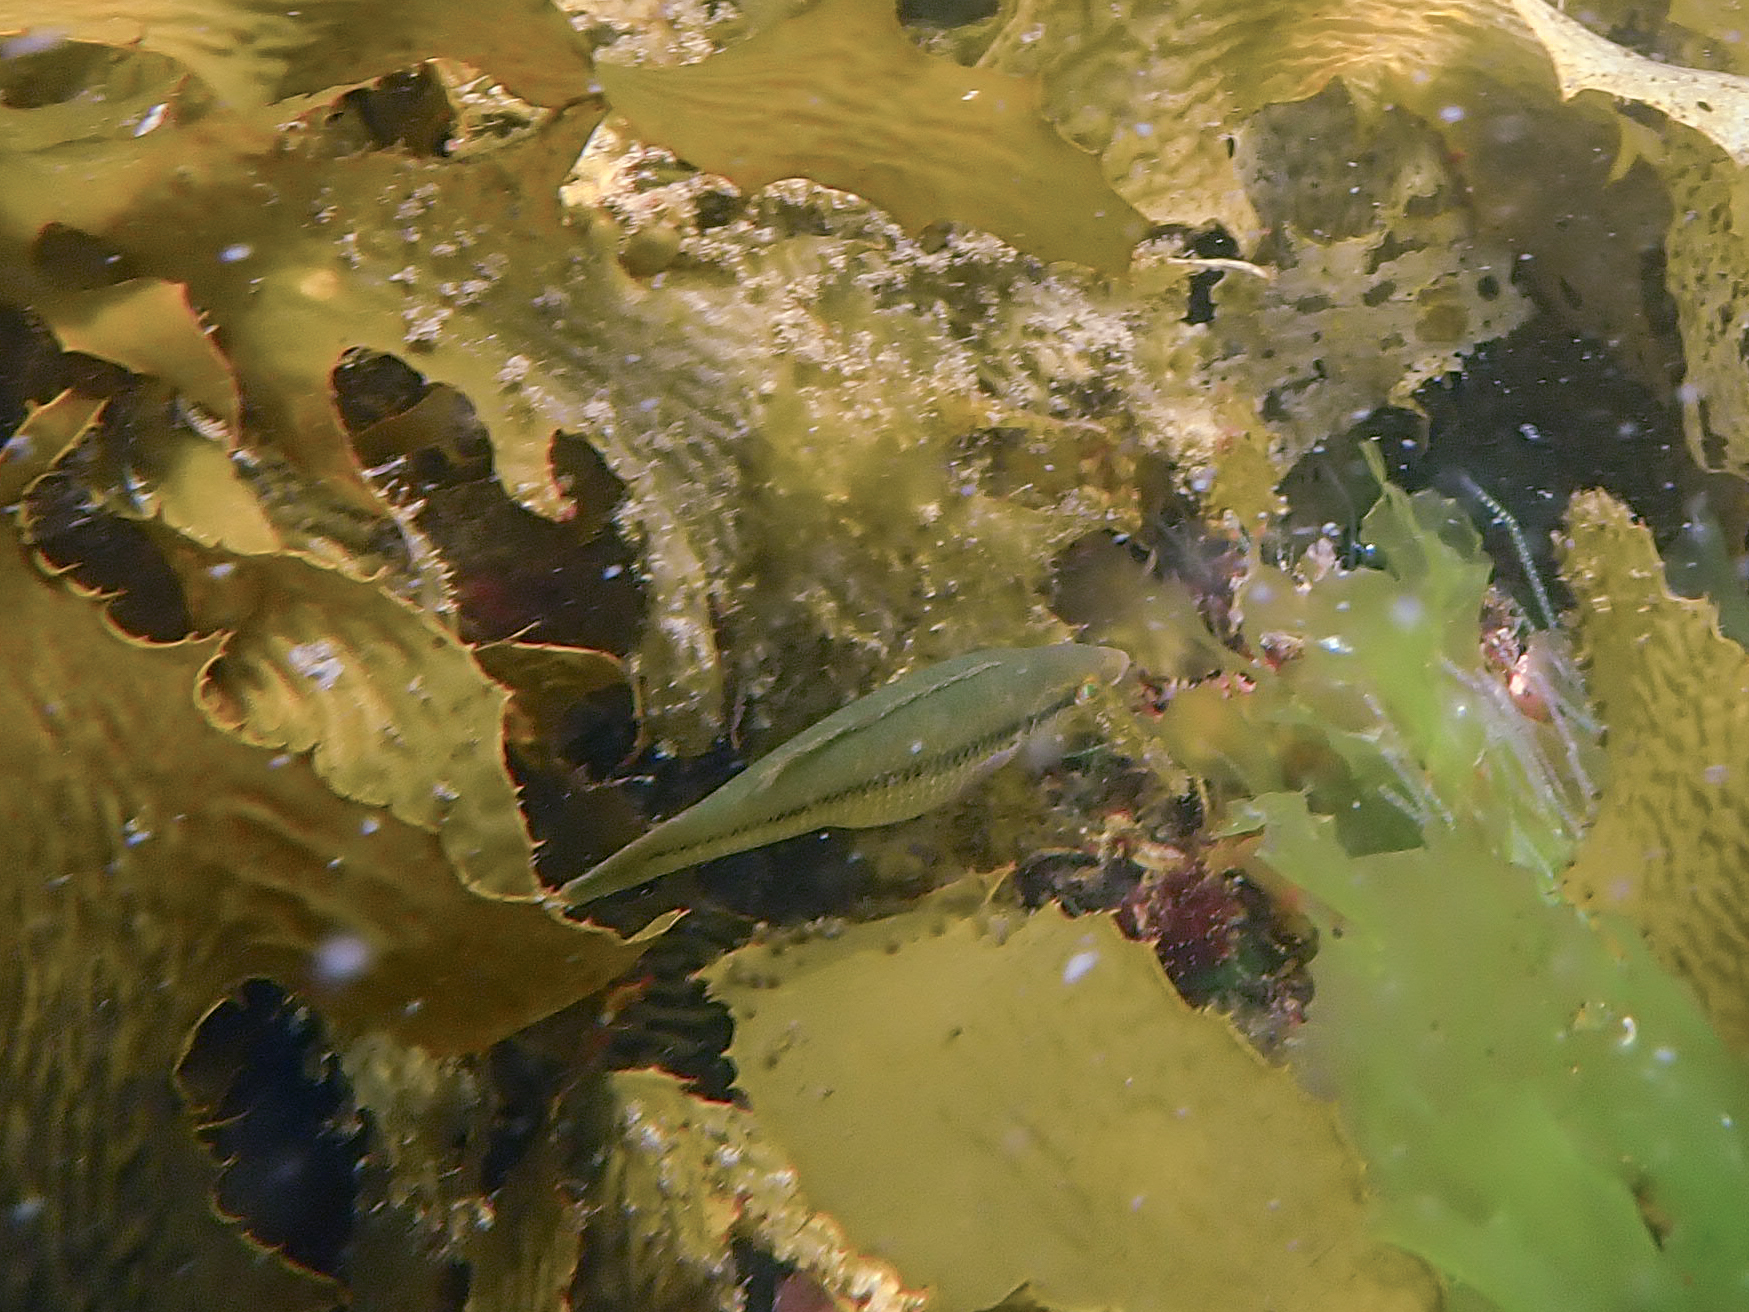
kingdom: Animalia
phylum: Chordata
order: Perciformes
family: Odacidae
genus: Neoodax
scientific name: Neoodax balteatus
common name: Ground mullet
